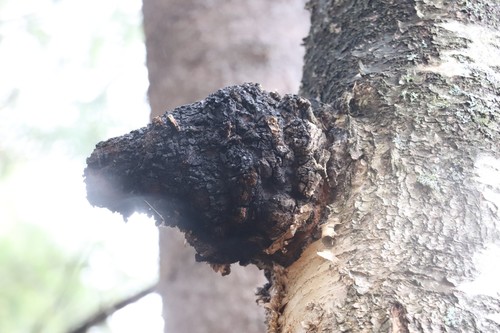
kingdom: Fungi
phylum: Basidiomycota
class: Agaricomycetes
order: Hymenochaetales
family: Hymenochaetaceae
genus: Inonotus
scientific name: Inonotus obliquus
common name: Chaga
